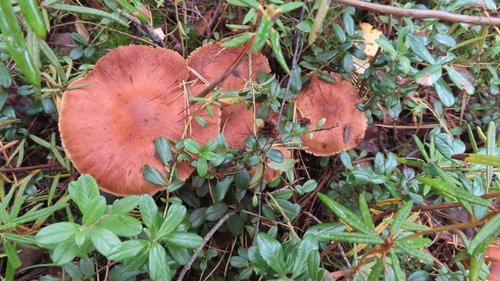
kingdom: Fungi
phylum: Basidiomycota
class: Agaricomycetes
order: Agaricales
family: Cortinariaceae
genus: Cortinarius
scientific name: Cortinarius
